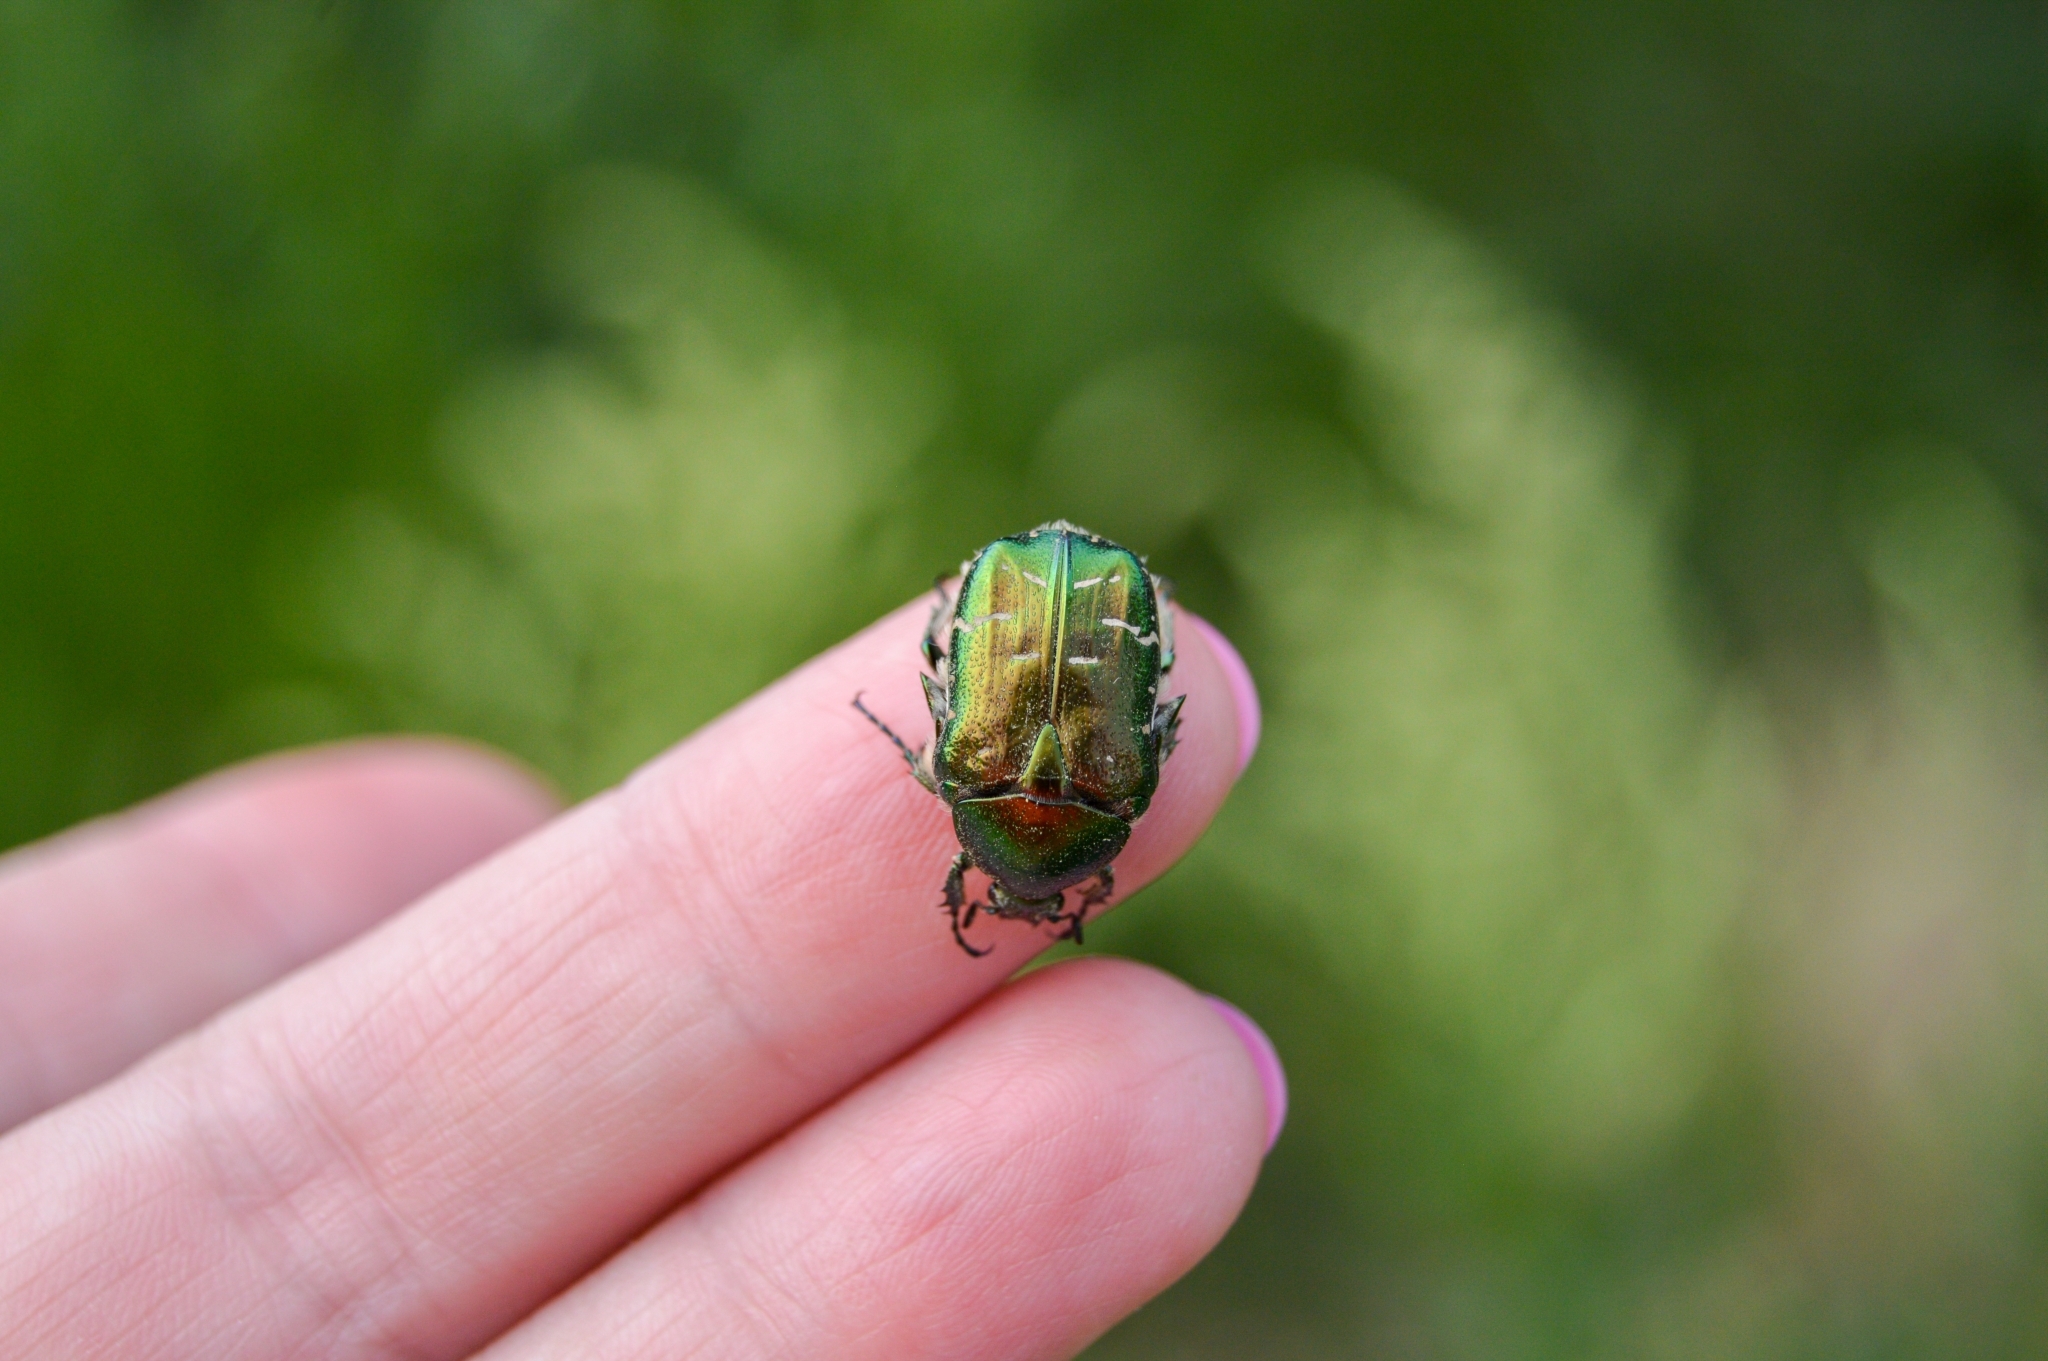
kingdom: Animalia
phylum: Arthropoda
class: Insecta
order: Coleoptera
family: Scarabaeidae
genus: Cetonia
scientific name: Cetonia aurata
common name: Rose chafer
